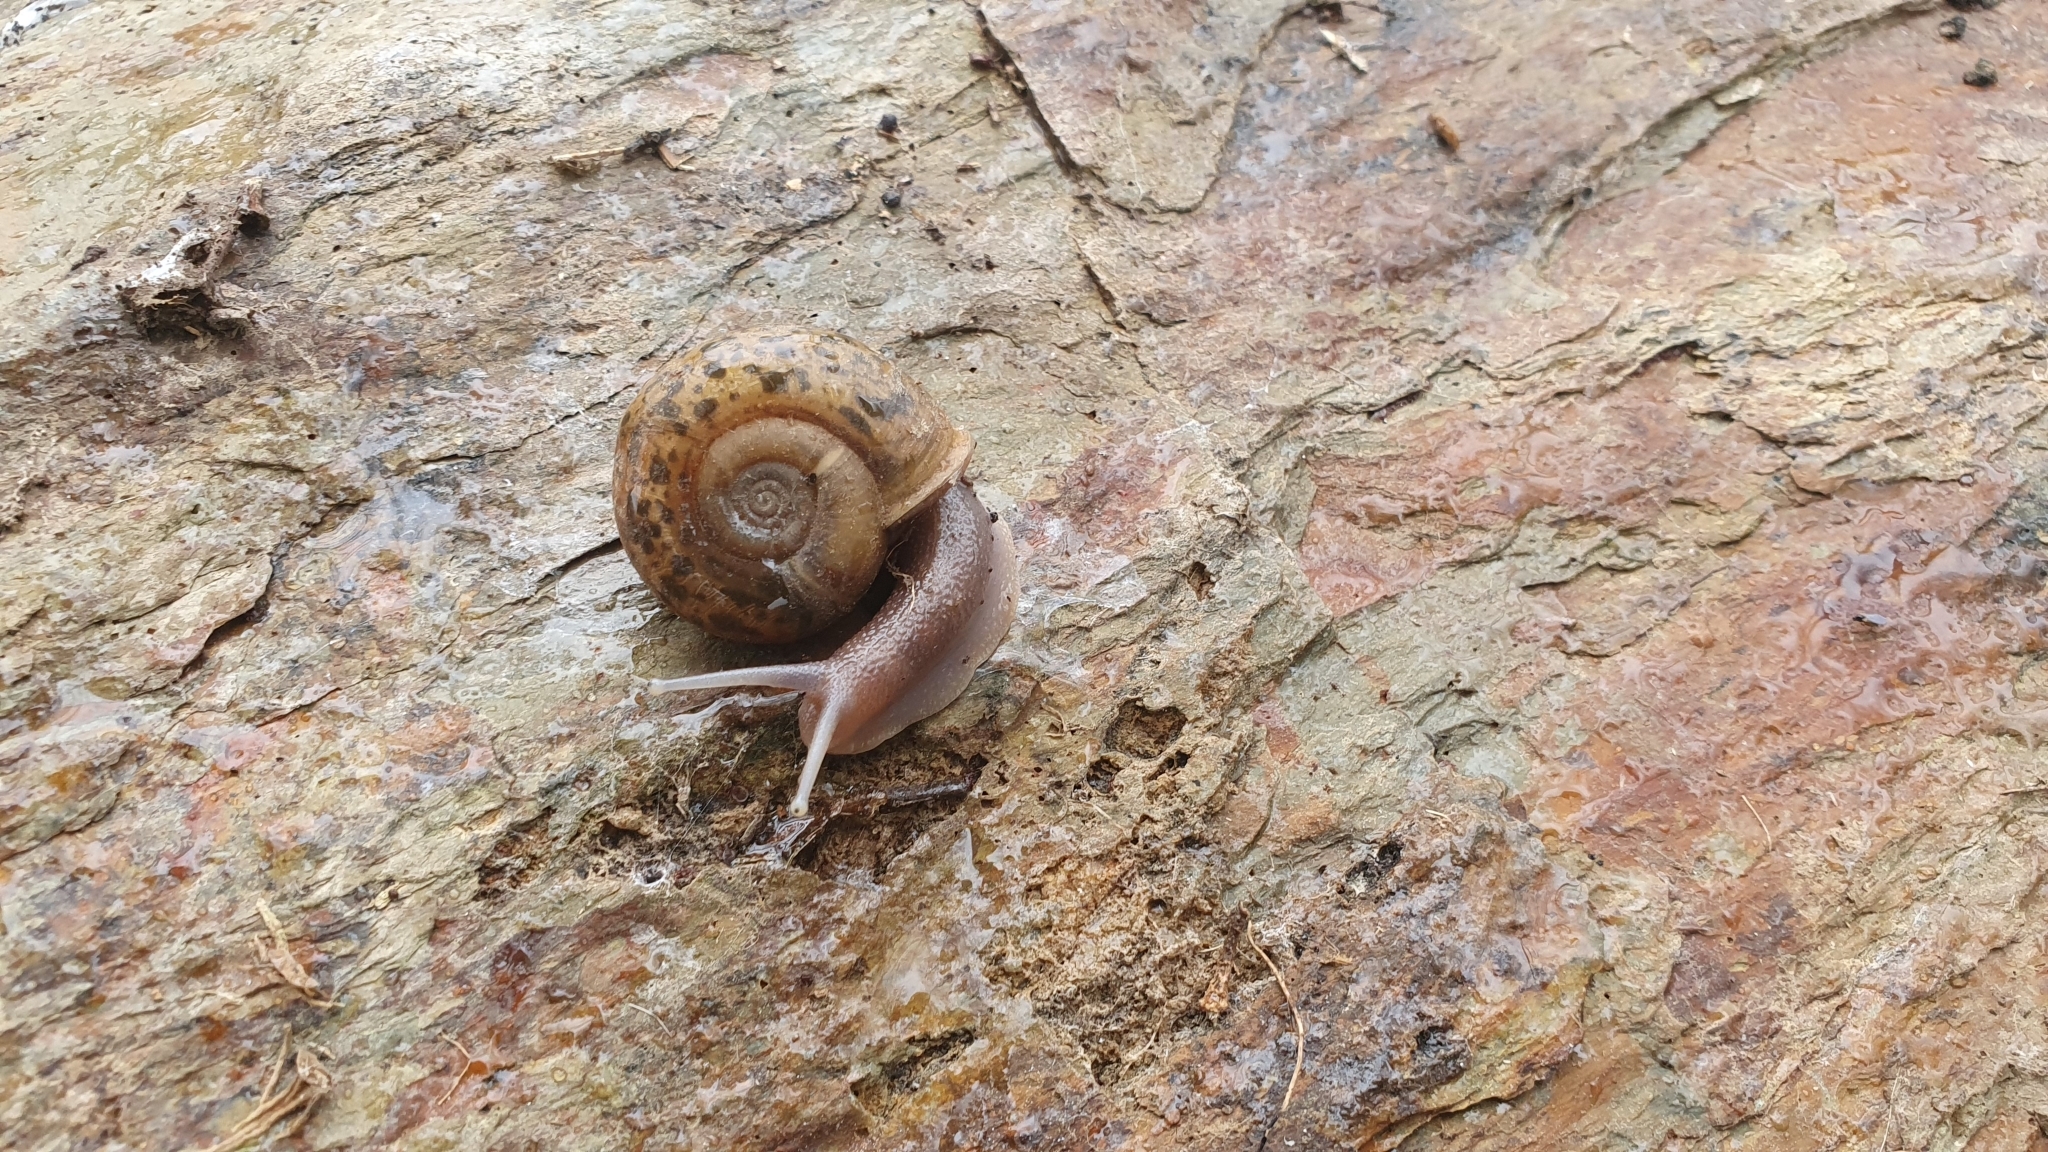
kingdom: Animalia
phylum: Mollusca
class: Gastropoda
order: Stylommatophora
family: Elonidae
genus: Elona
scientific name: Elona quimperiana
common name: Quimper snail
